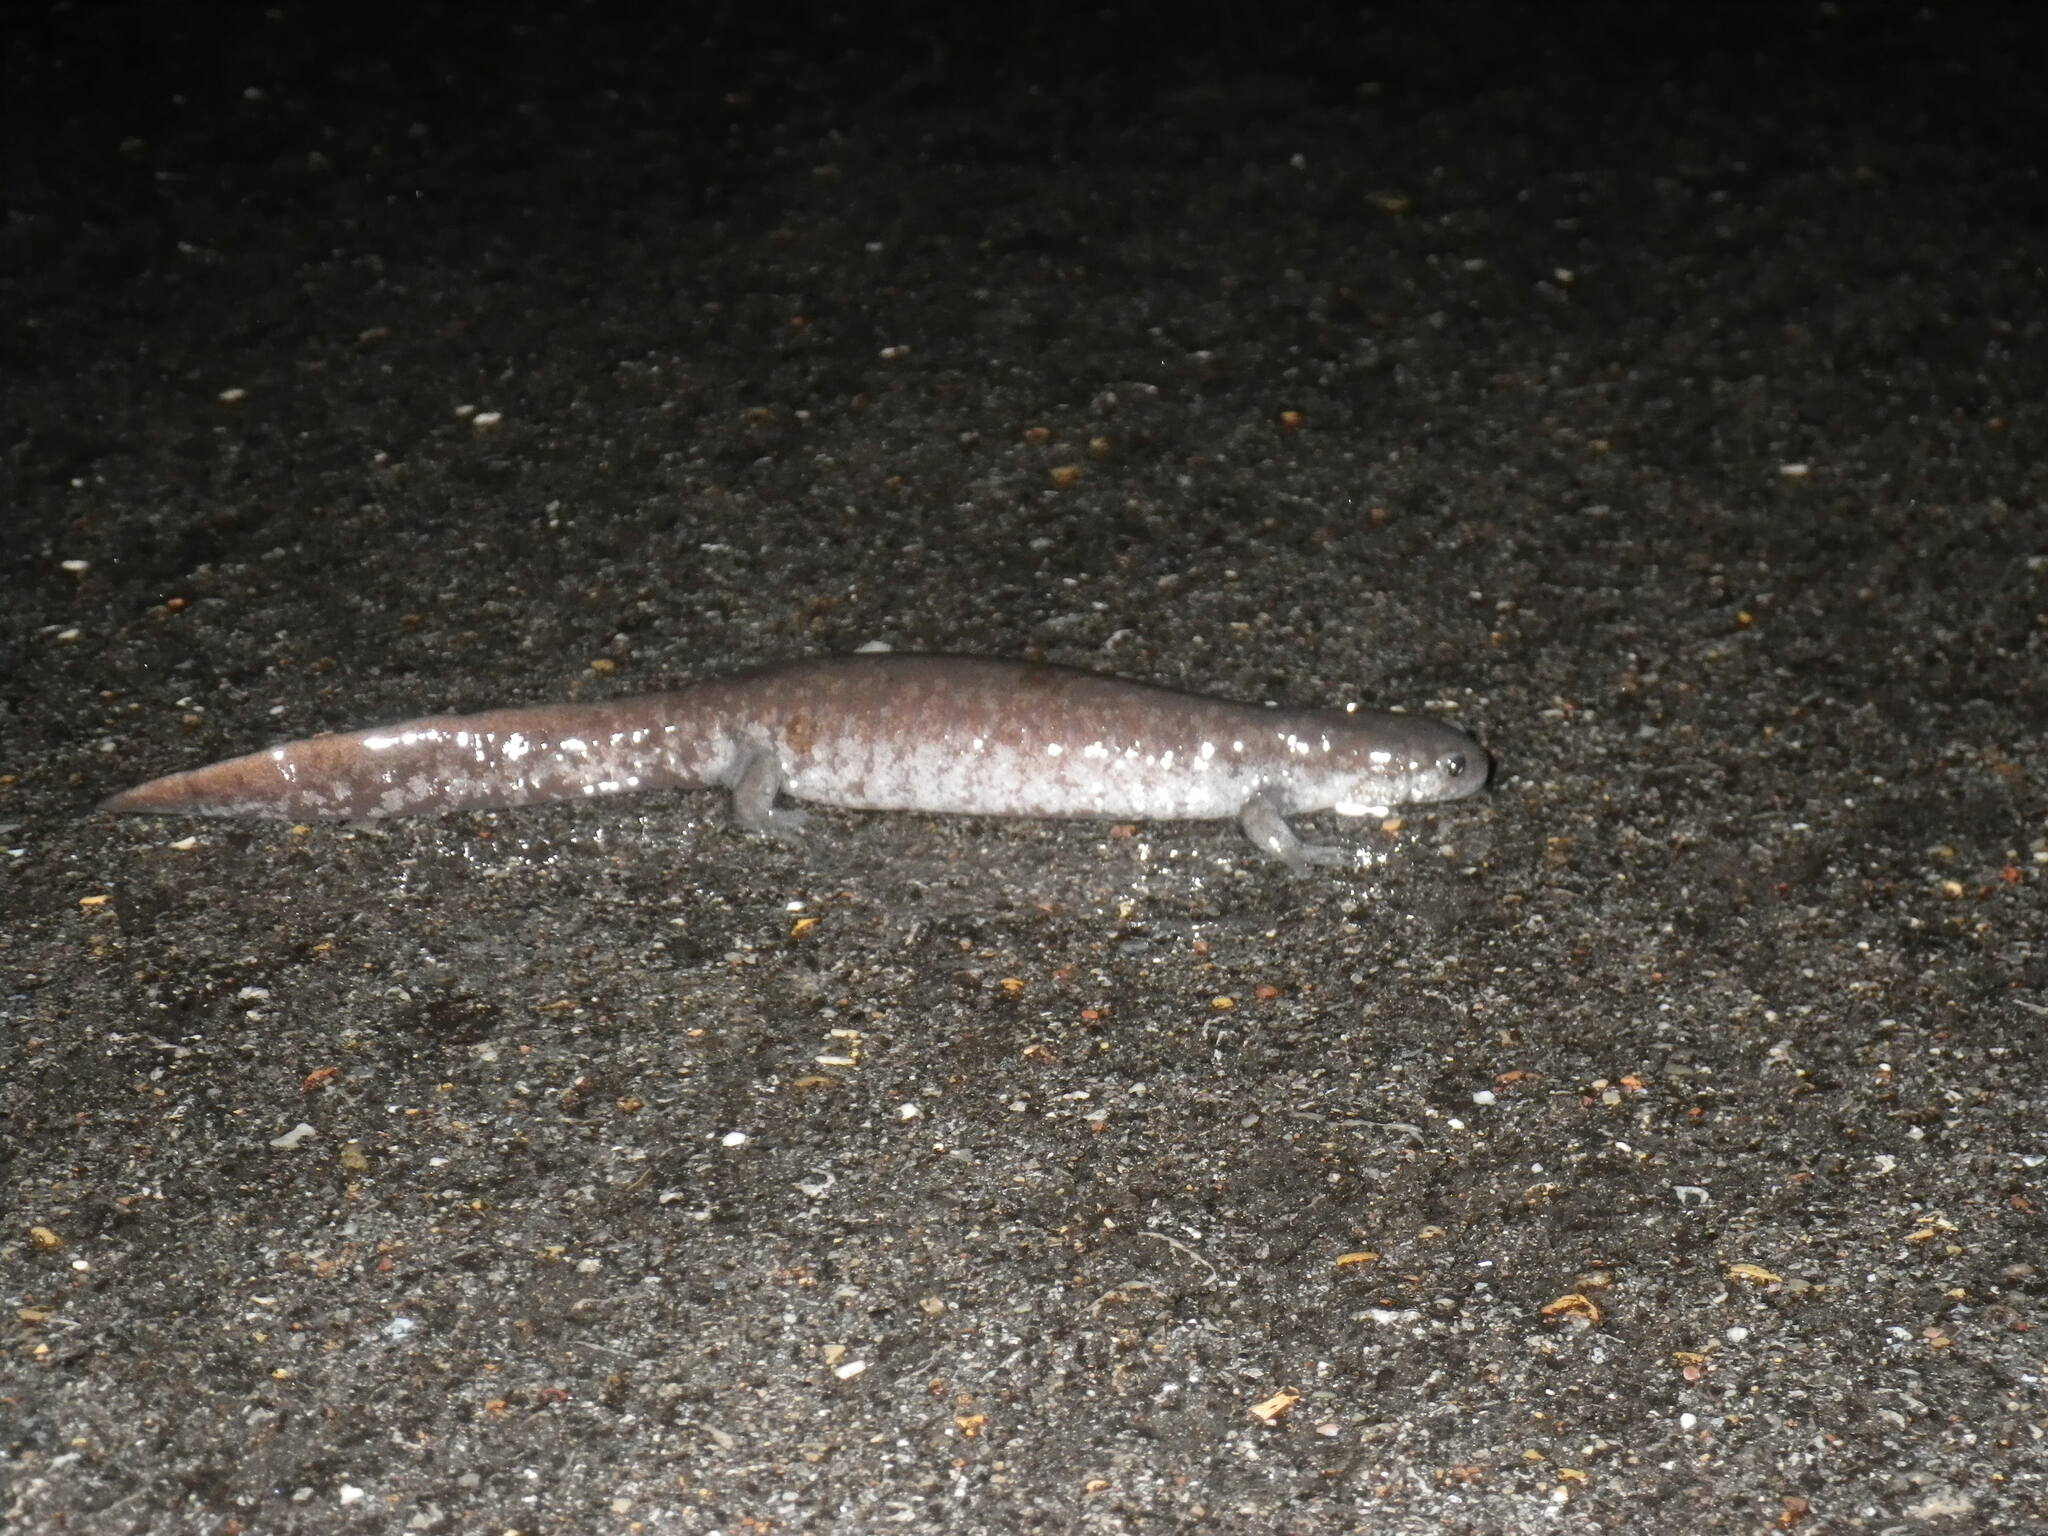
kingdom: Animalia
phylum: Chordata
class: Amphibia
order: Caudata
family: Ambystomatidae
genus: Ambystoma
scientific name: Ambystoma texanum
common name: Small-mouth salamander
